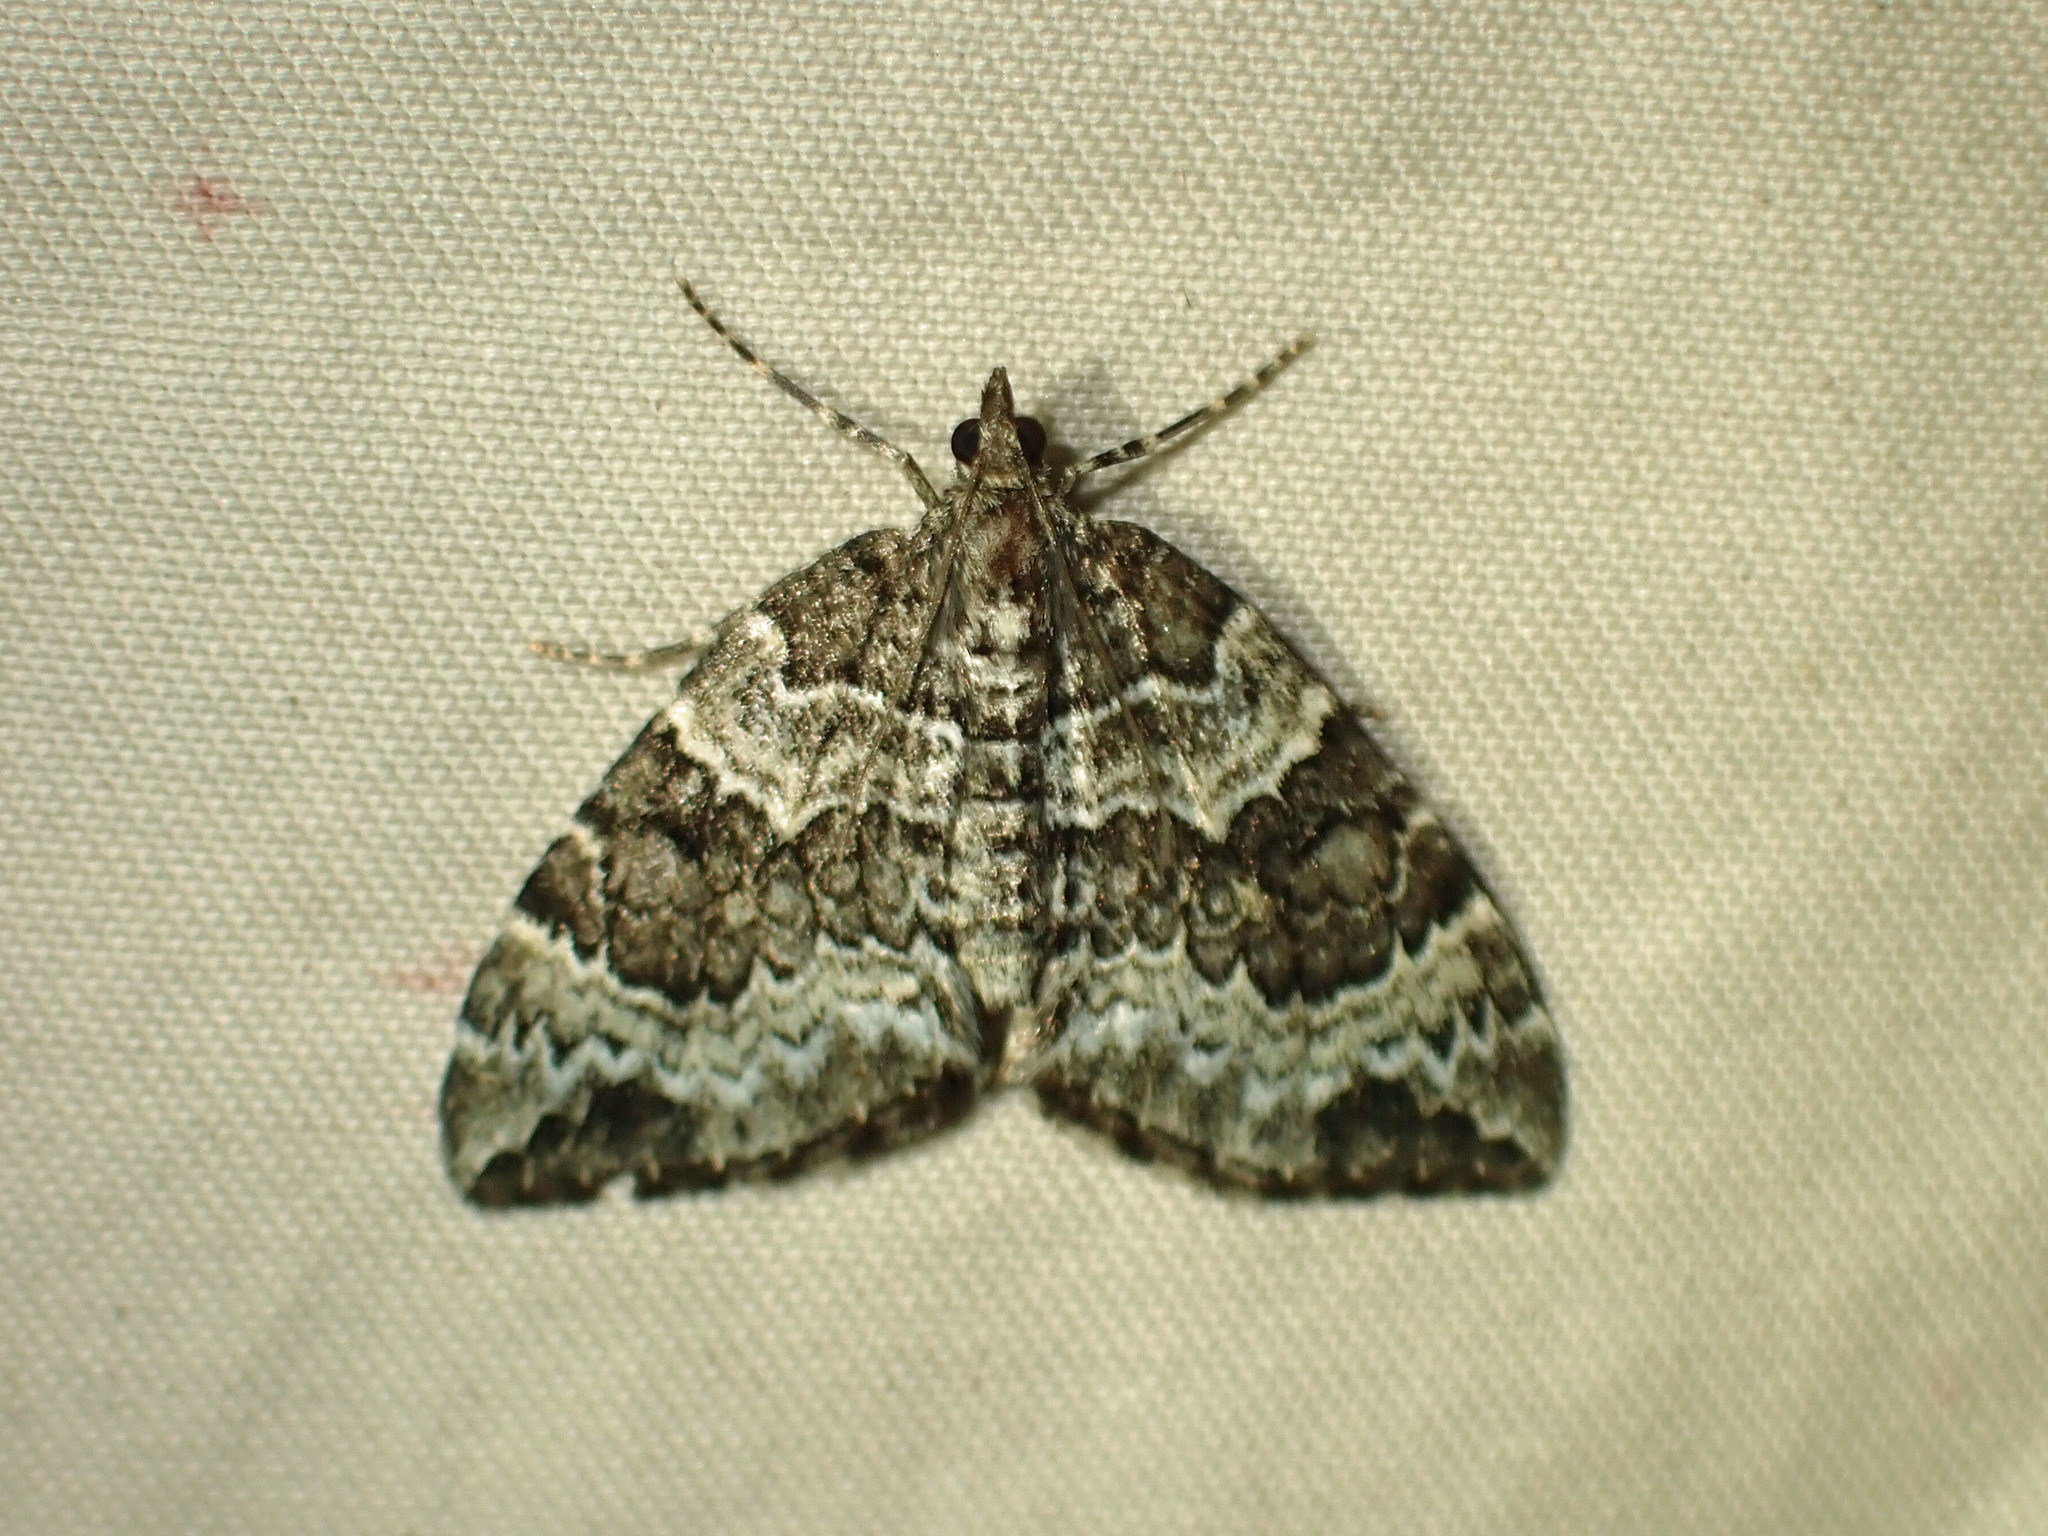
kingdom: Animalia
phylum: Arthropoda
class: Insecta
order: Lepidoptera
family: Geometridae
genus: Eulithis
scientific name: Eulithis explanata
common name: White eulithis
